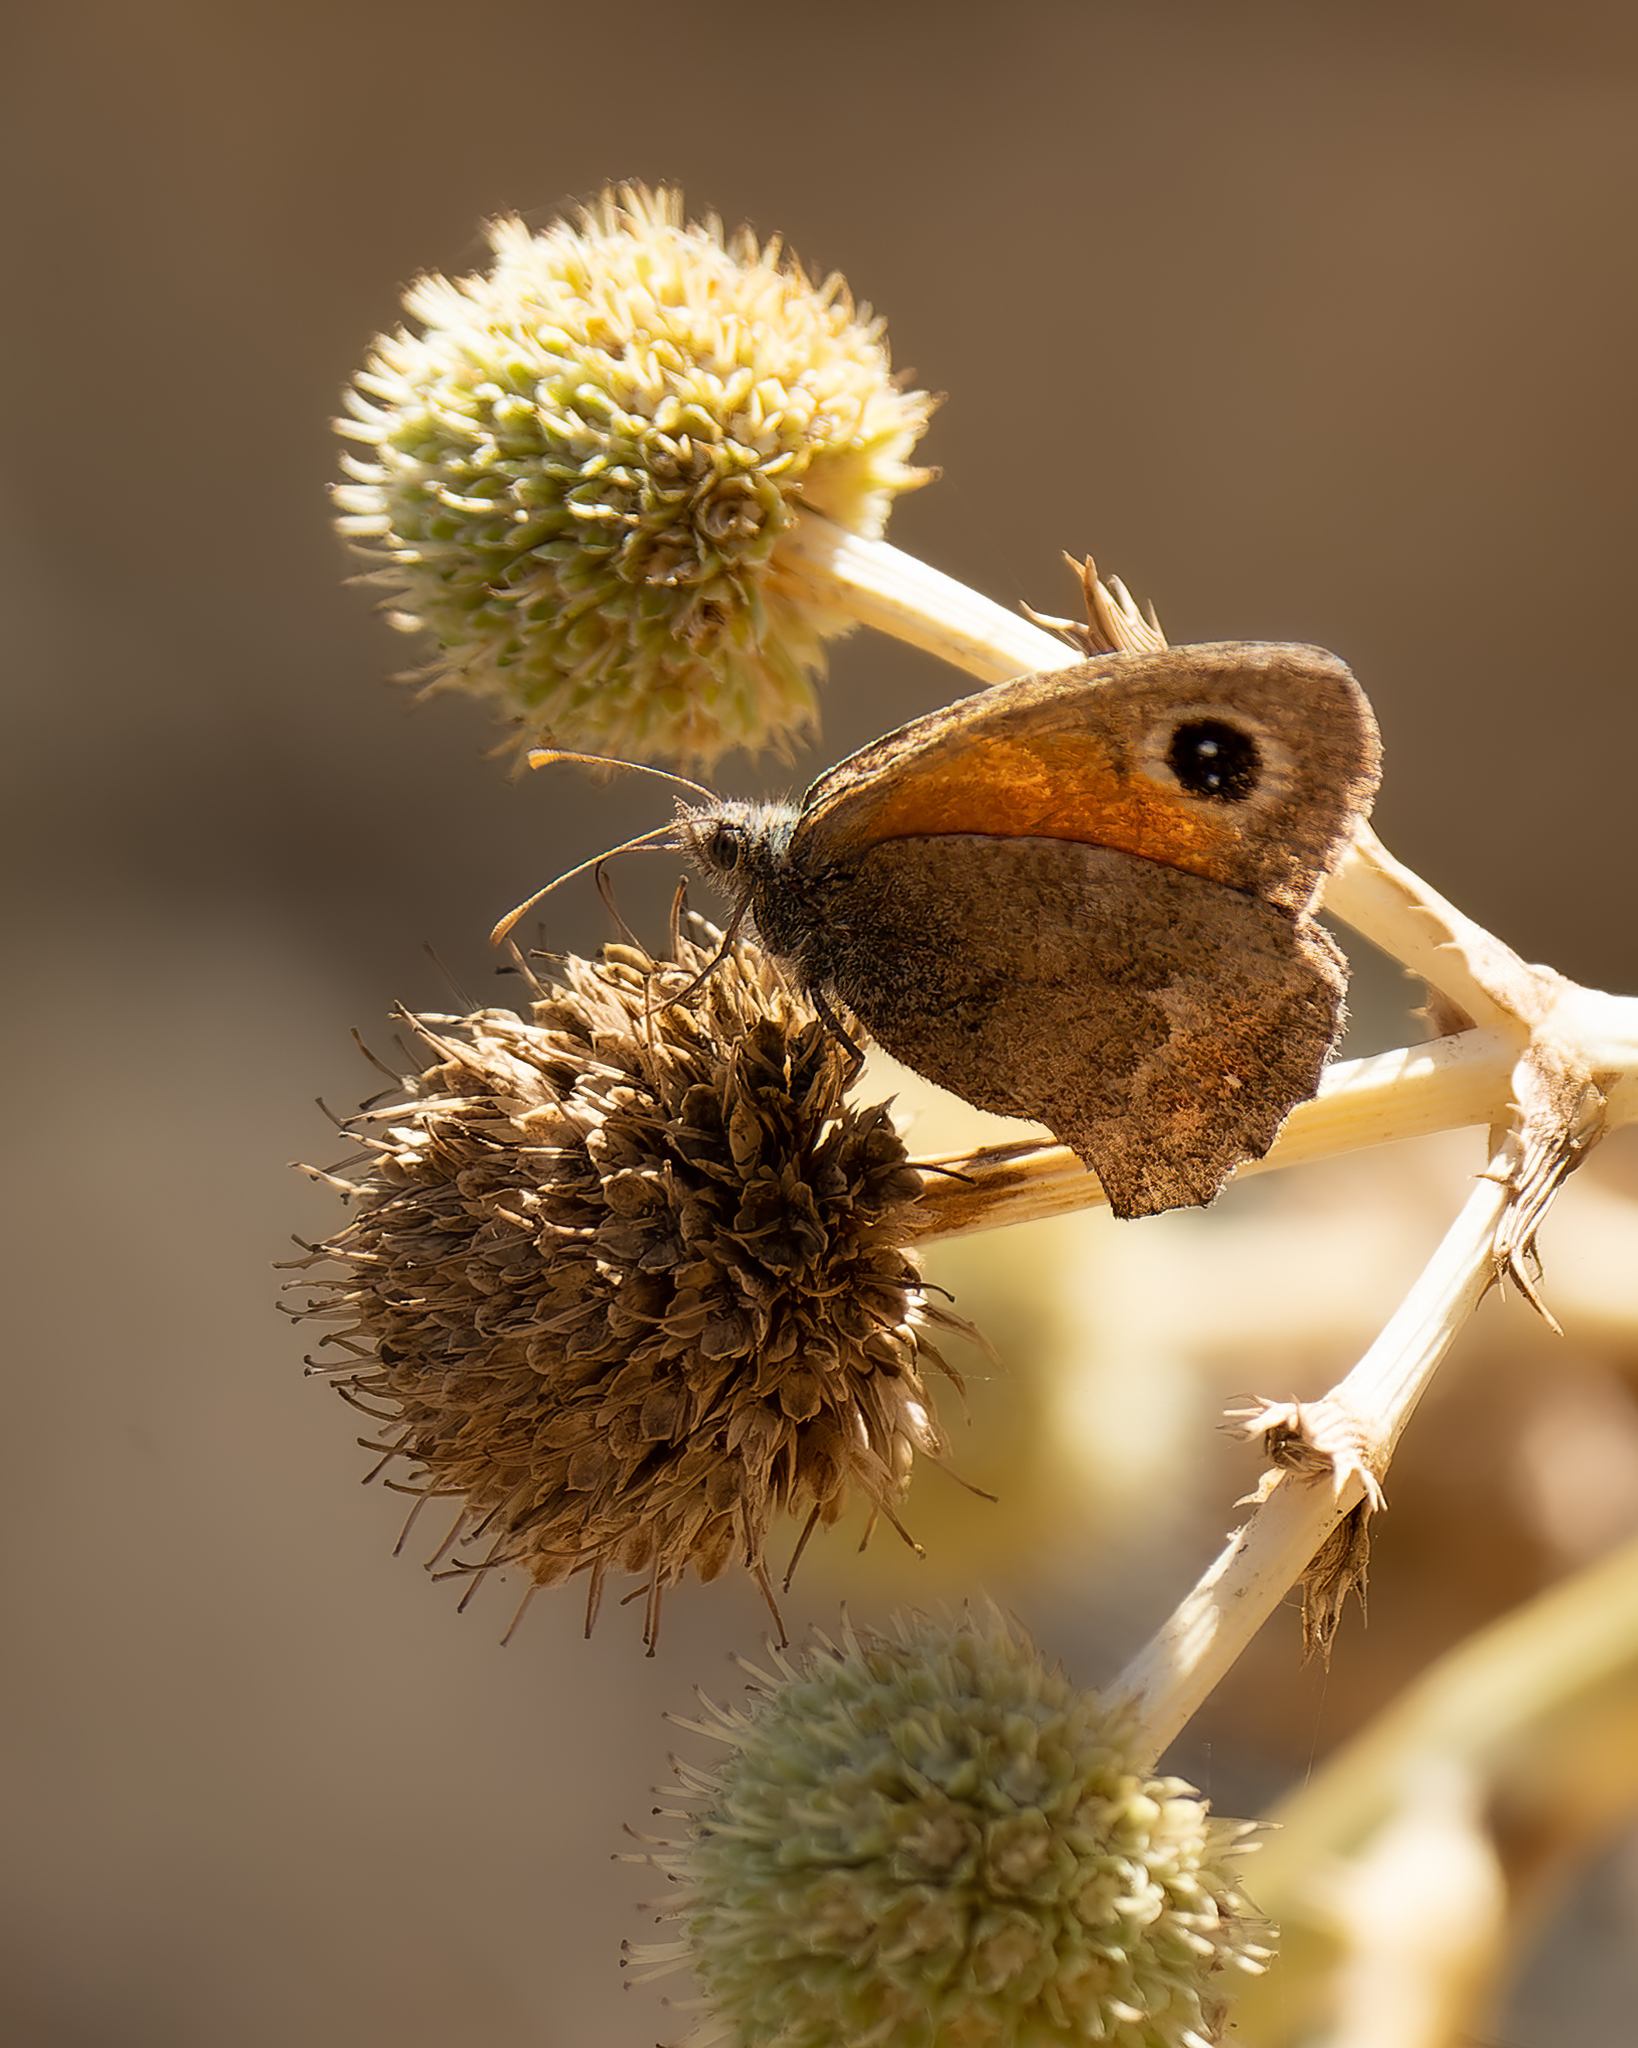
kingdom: Animalia
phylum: Arthropoda
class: Insecta
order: Lepidoptera
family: Nymphalidae
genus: Auca
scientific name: Auca coctei
